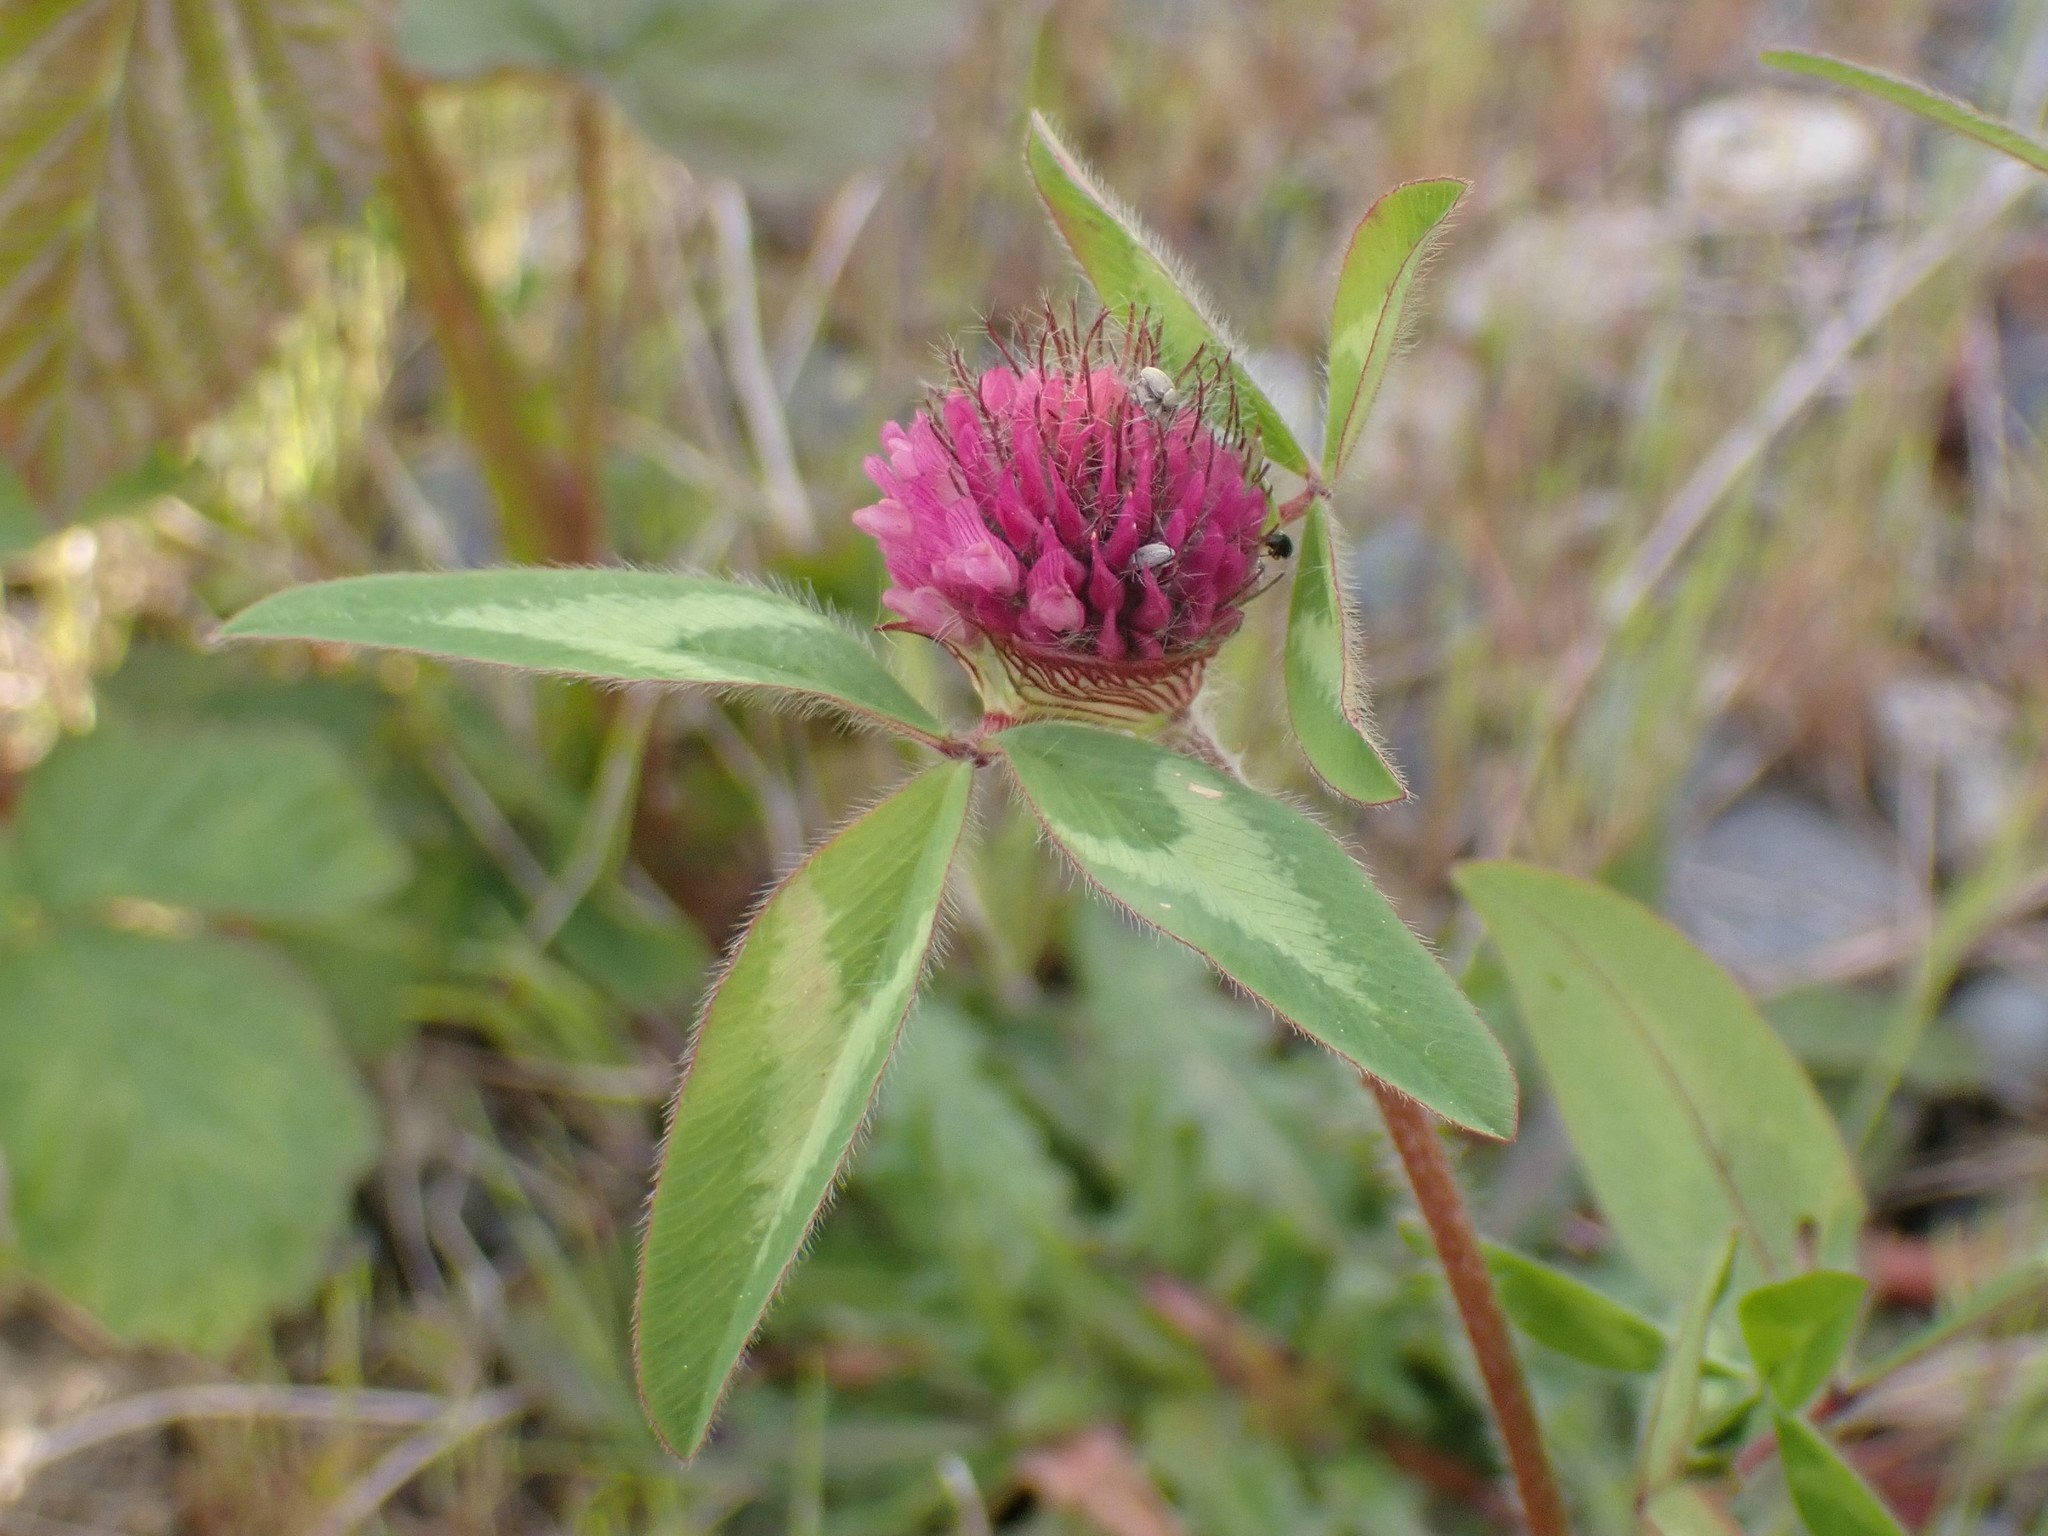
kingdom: Plantae
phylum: Tracheophyta
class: Magnoliopsida
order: Fabales
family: Fabaceae
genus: Trifolium
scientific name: Trifolium pratense
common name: Red clover
